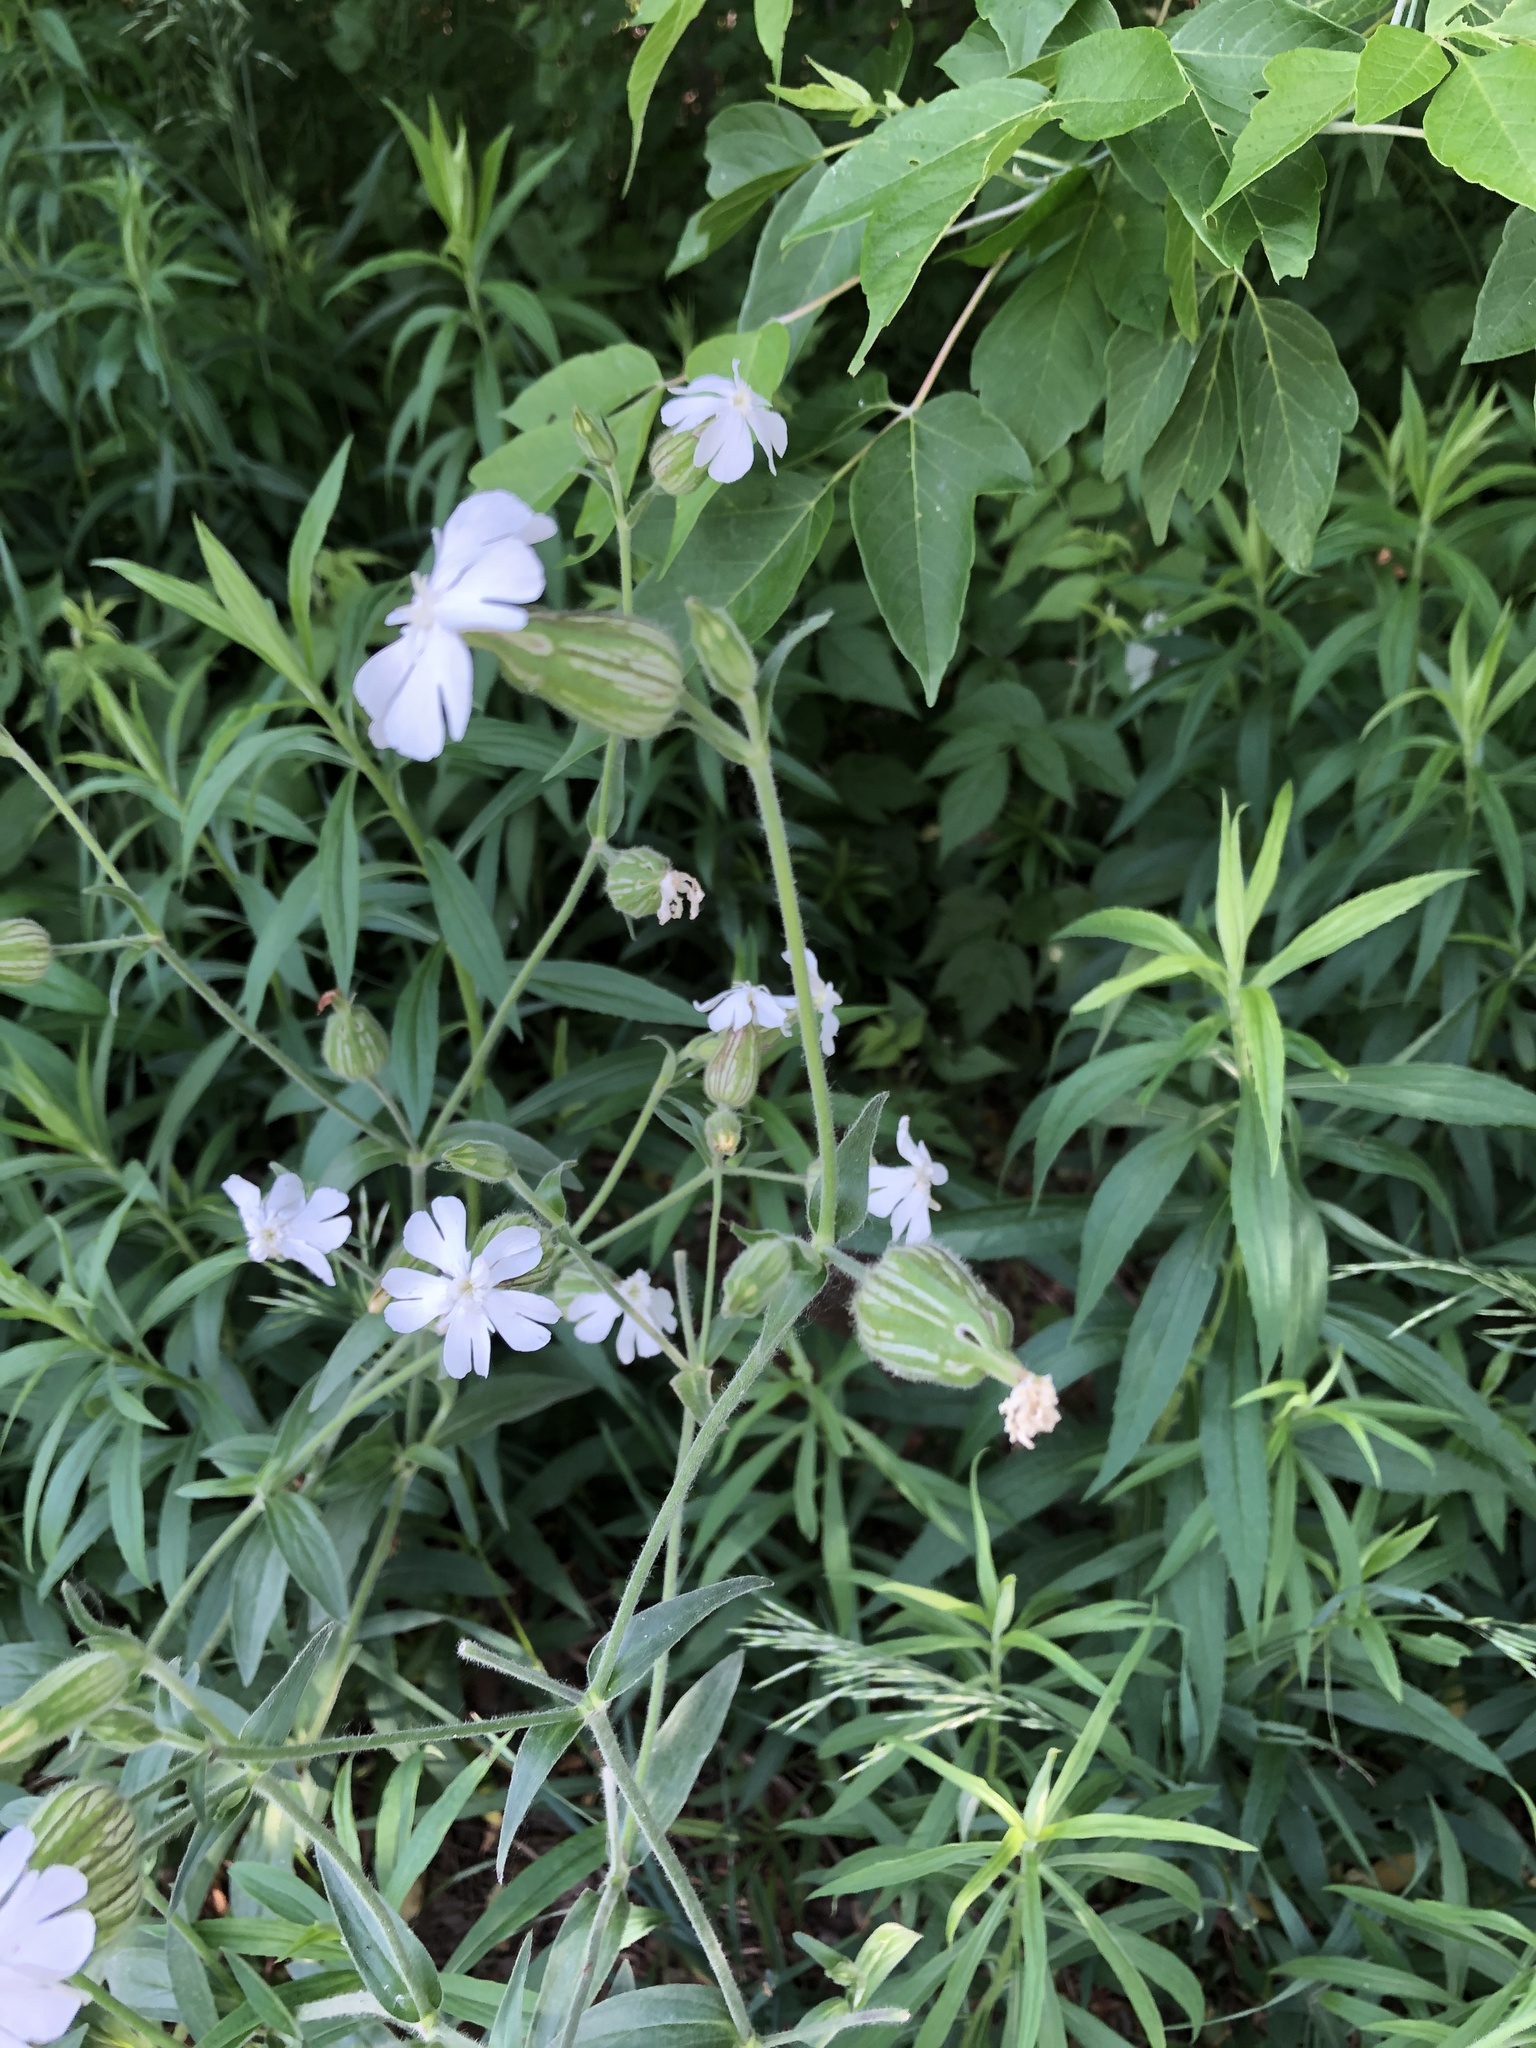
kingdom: Plantae
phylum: Tracheophyta
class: Magnoliopsida
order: Caryophyllales
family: Caryophyllaceae
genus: Silene
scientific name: Silene latifolia
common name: White campion
